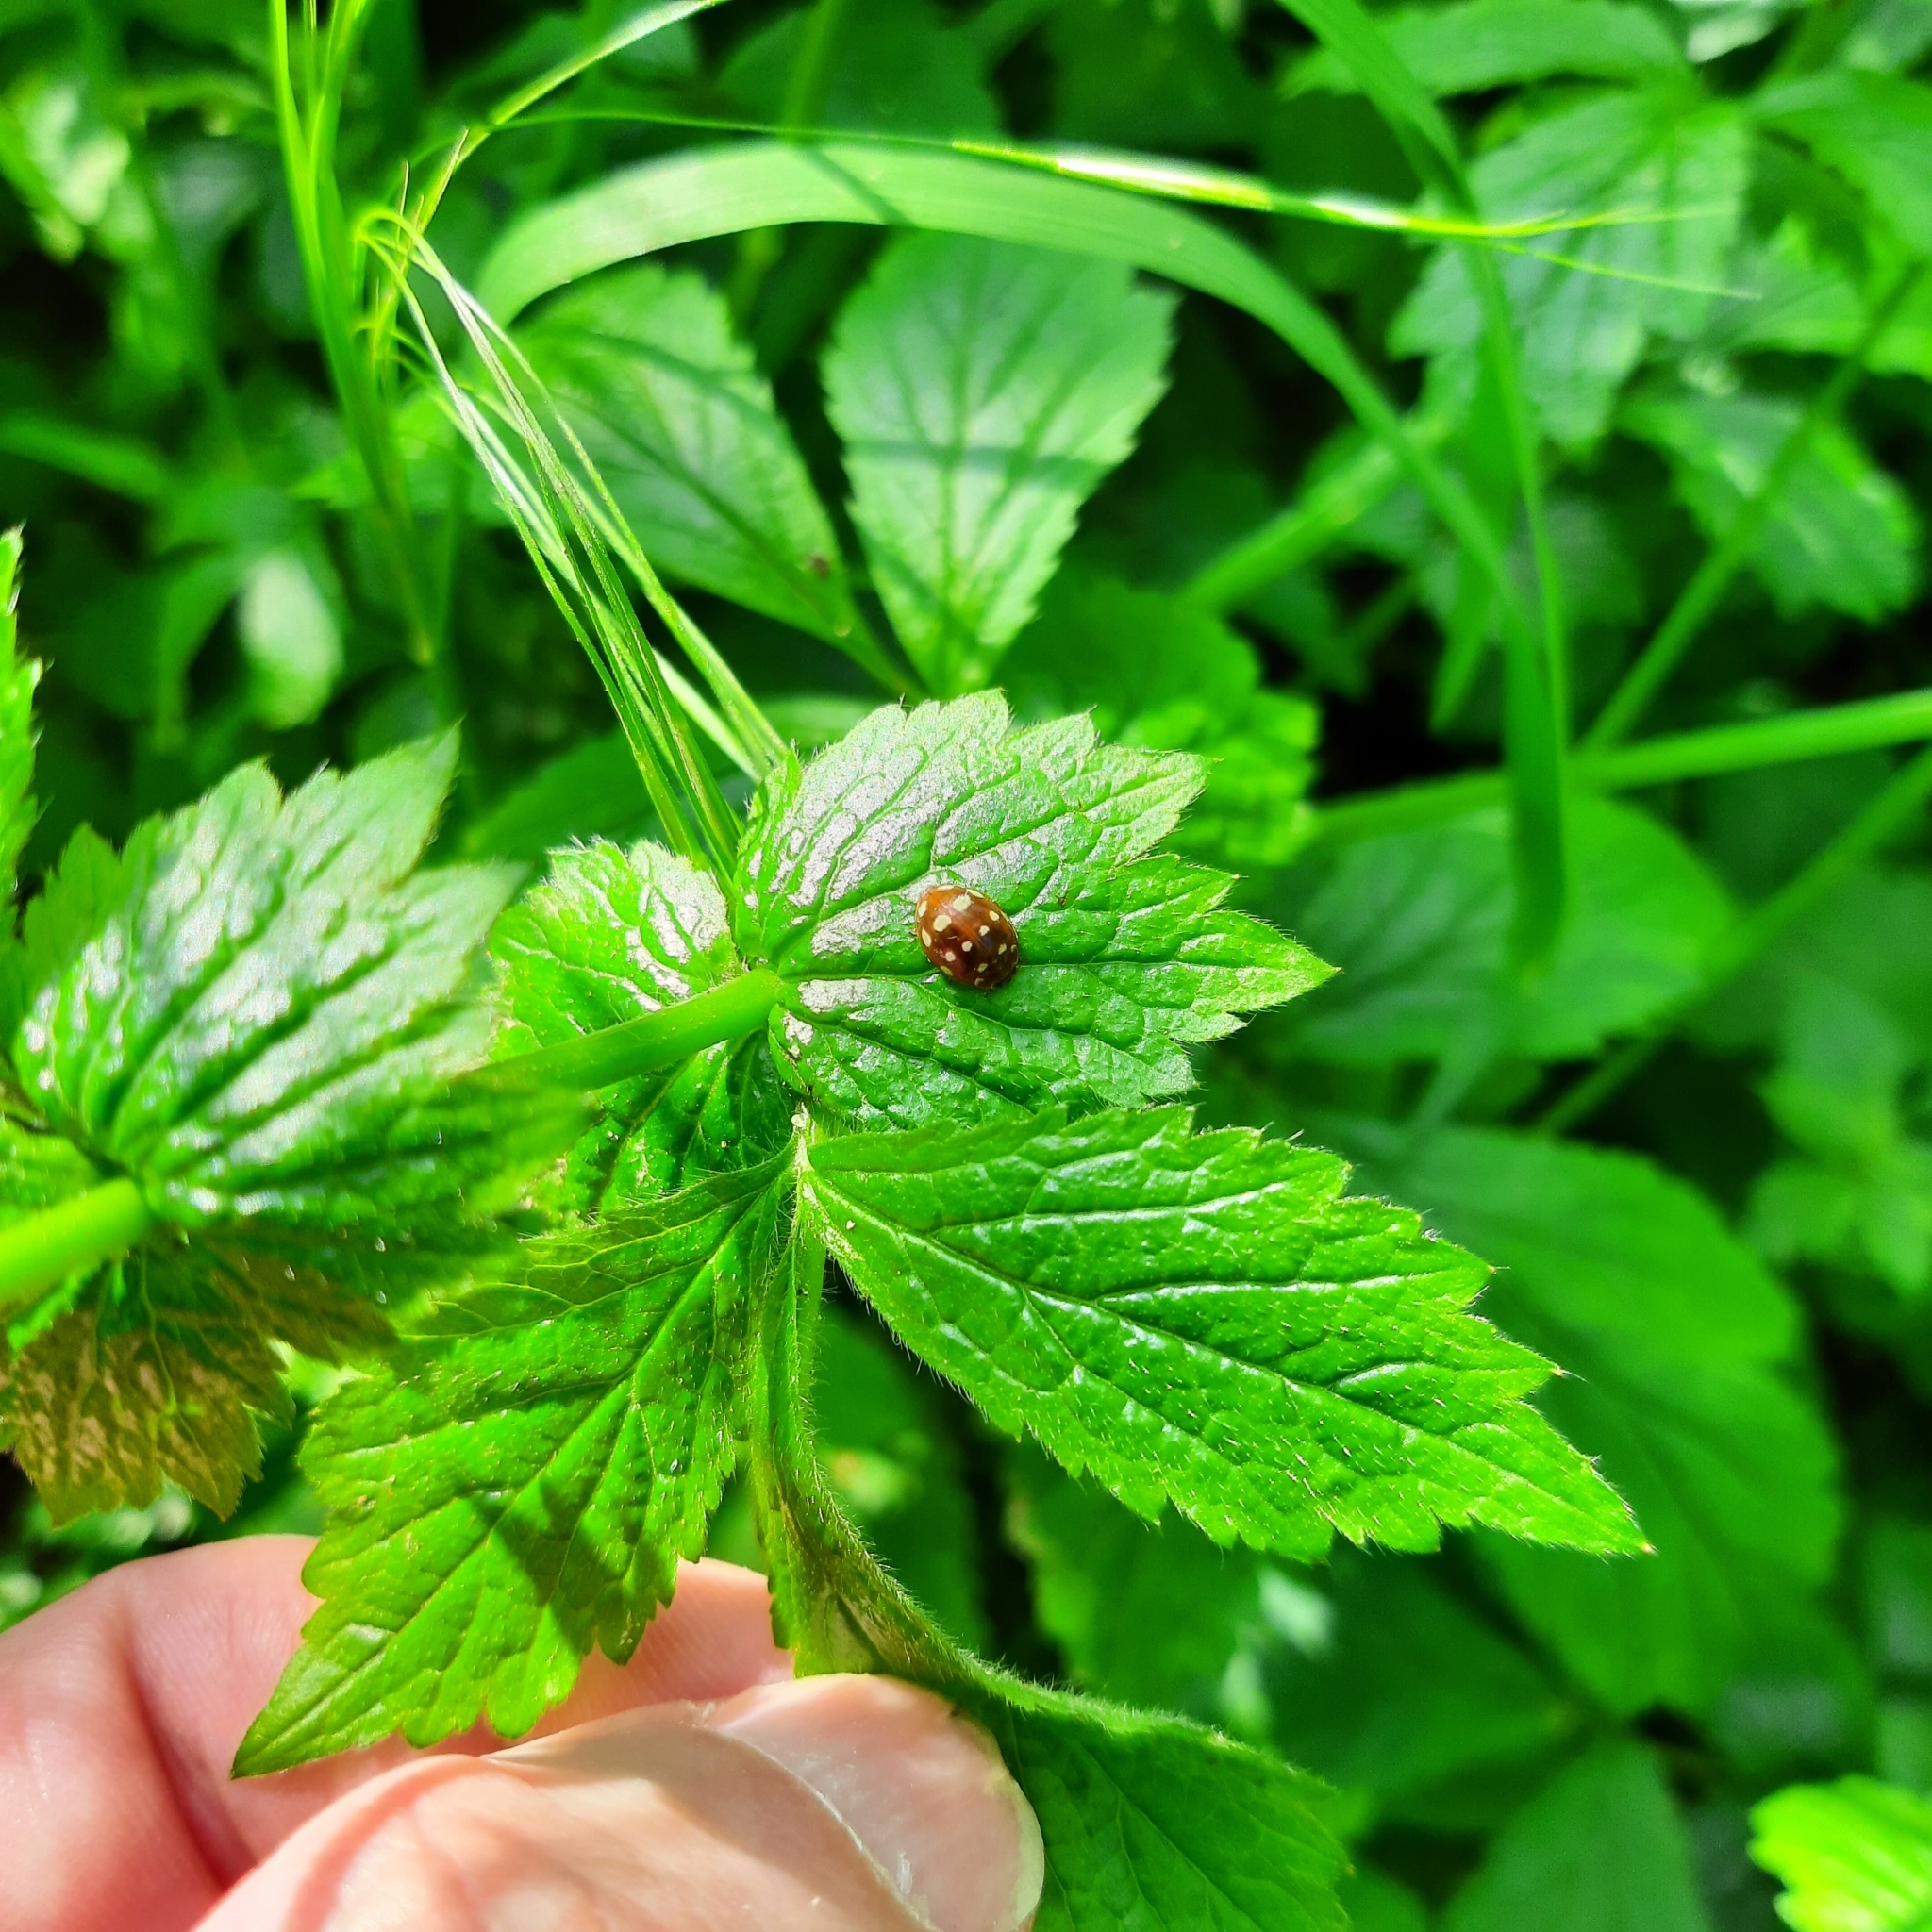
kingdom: Animalia
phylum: Arthropoda
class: Insecta
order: Coleoptera
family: Coccinellidae
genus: Calvia
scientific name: Calvia quatuordecimguttata
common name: Cream-spot ladybird
